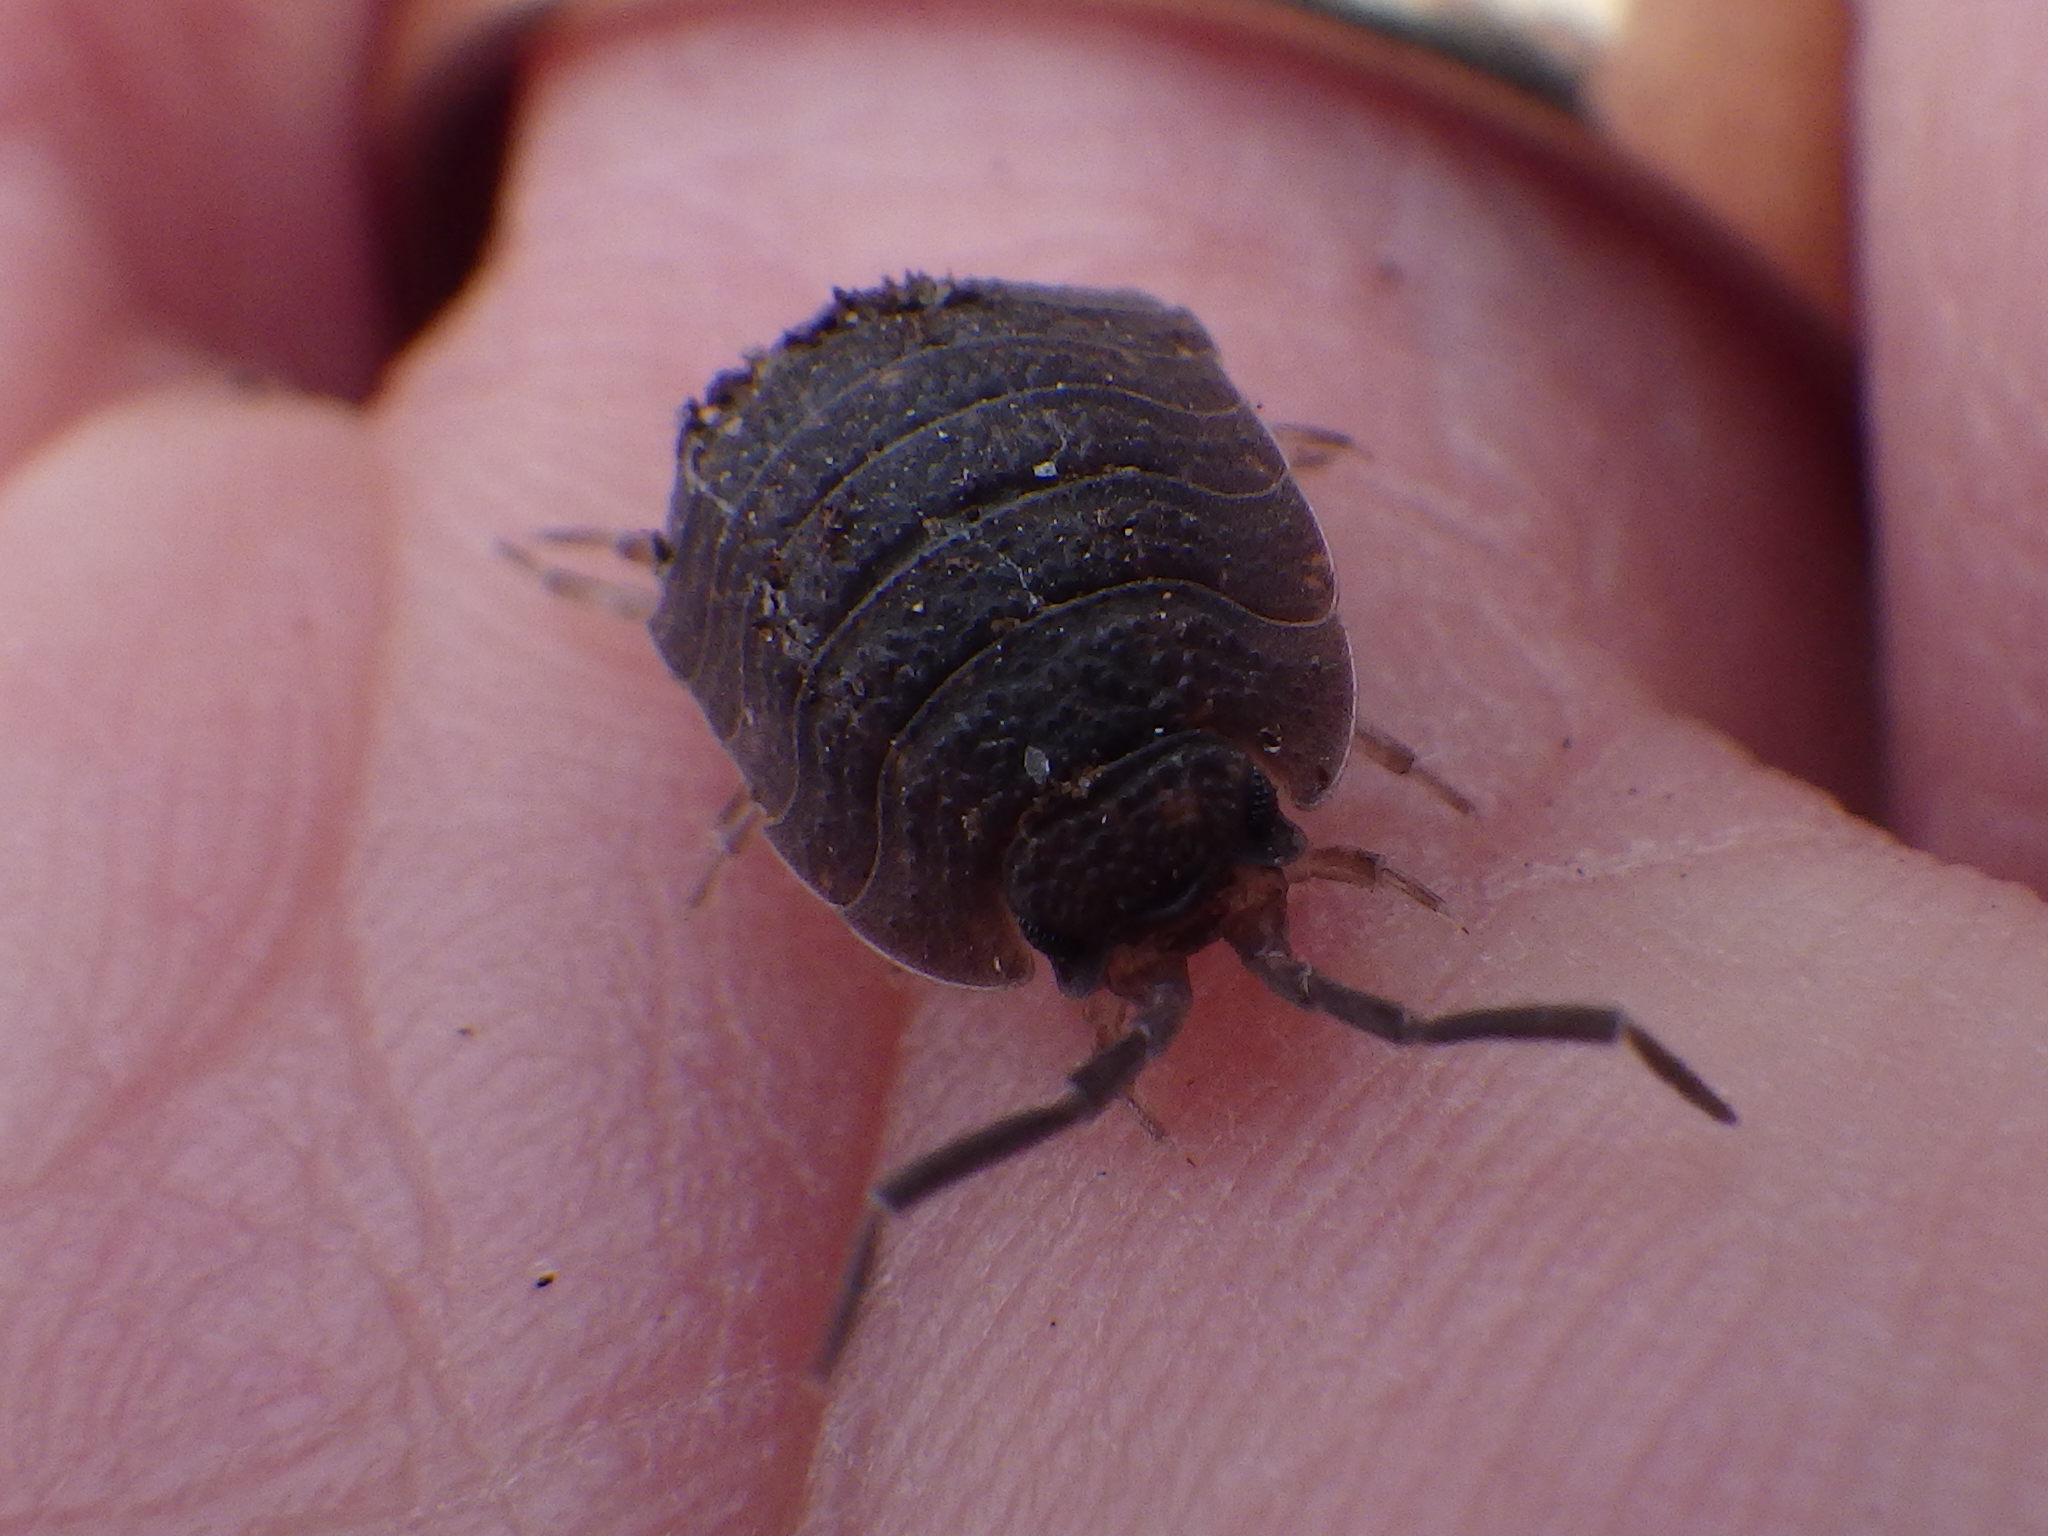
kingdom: Animalia
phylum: Arthropoda
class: Malacostraca
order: Isopoda
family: Porcellionidae
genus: Porcellio
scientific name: Porcellio scaber
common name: Common rough woodlouse
